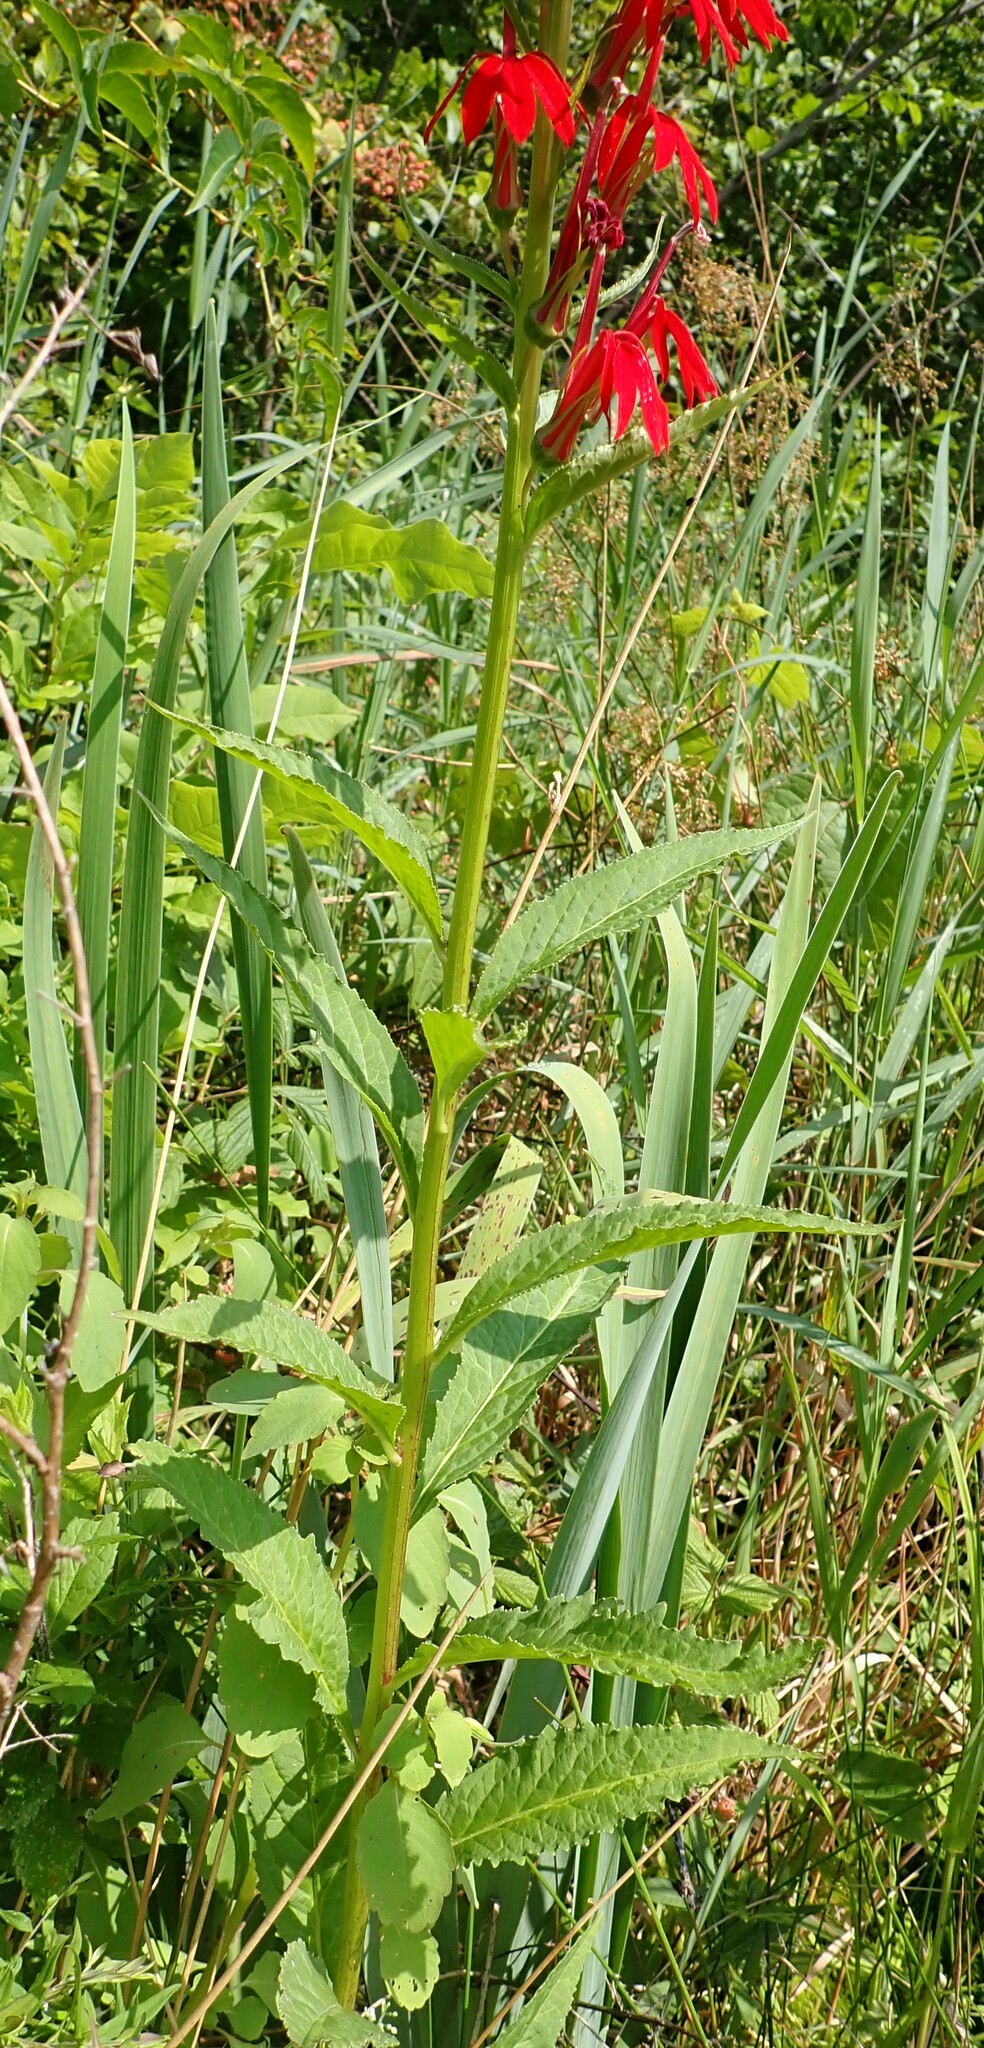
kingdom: Plantae
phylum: Tracheophyta
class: Magnoliopsida
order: Asterales
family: Campanulaceae
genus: Lobelia
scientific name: Lobelia cardinalis
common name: Cardinal flower
